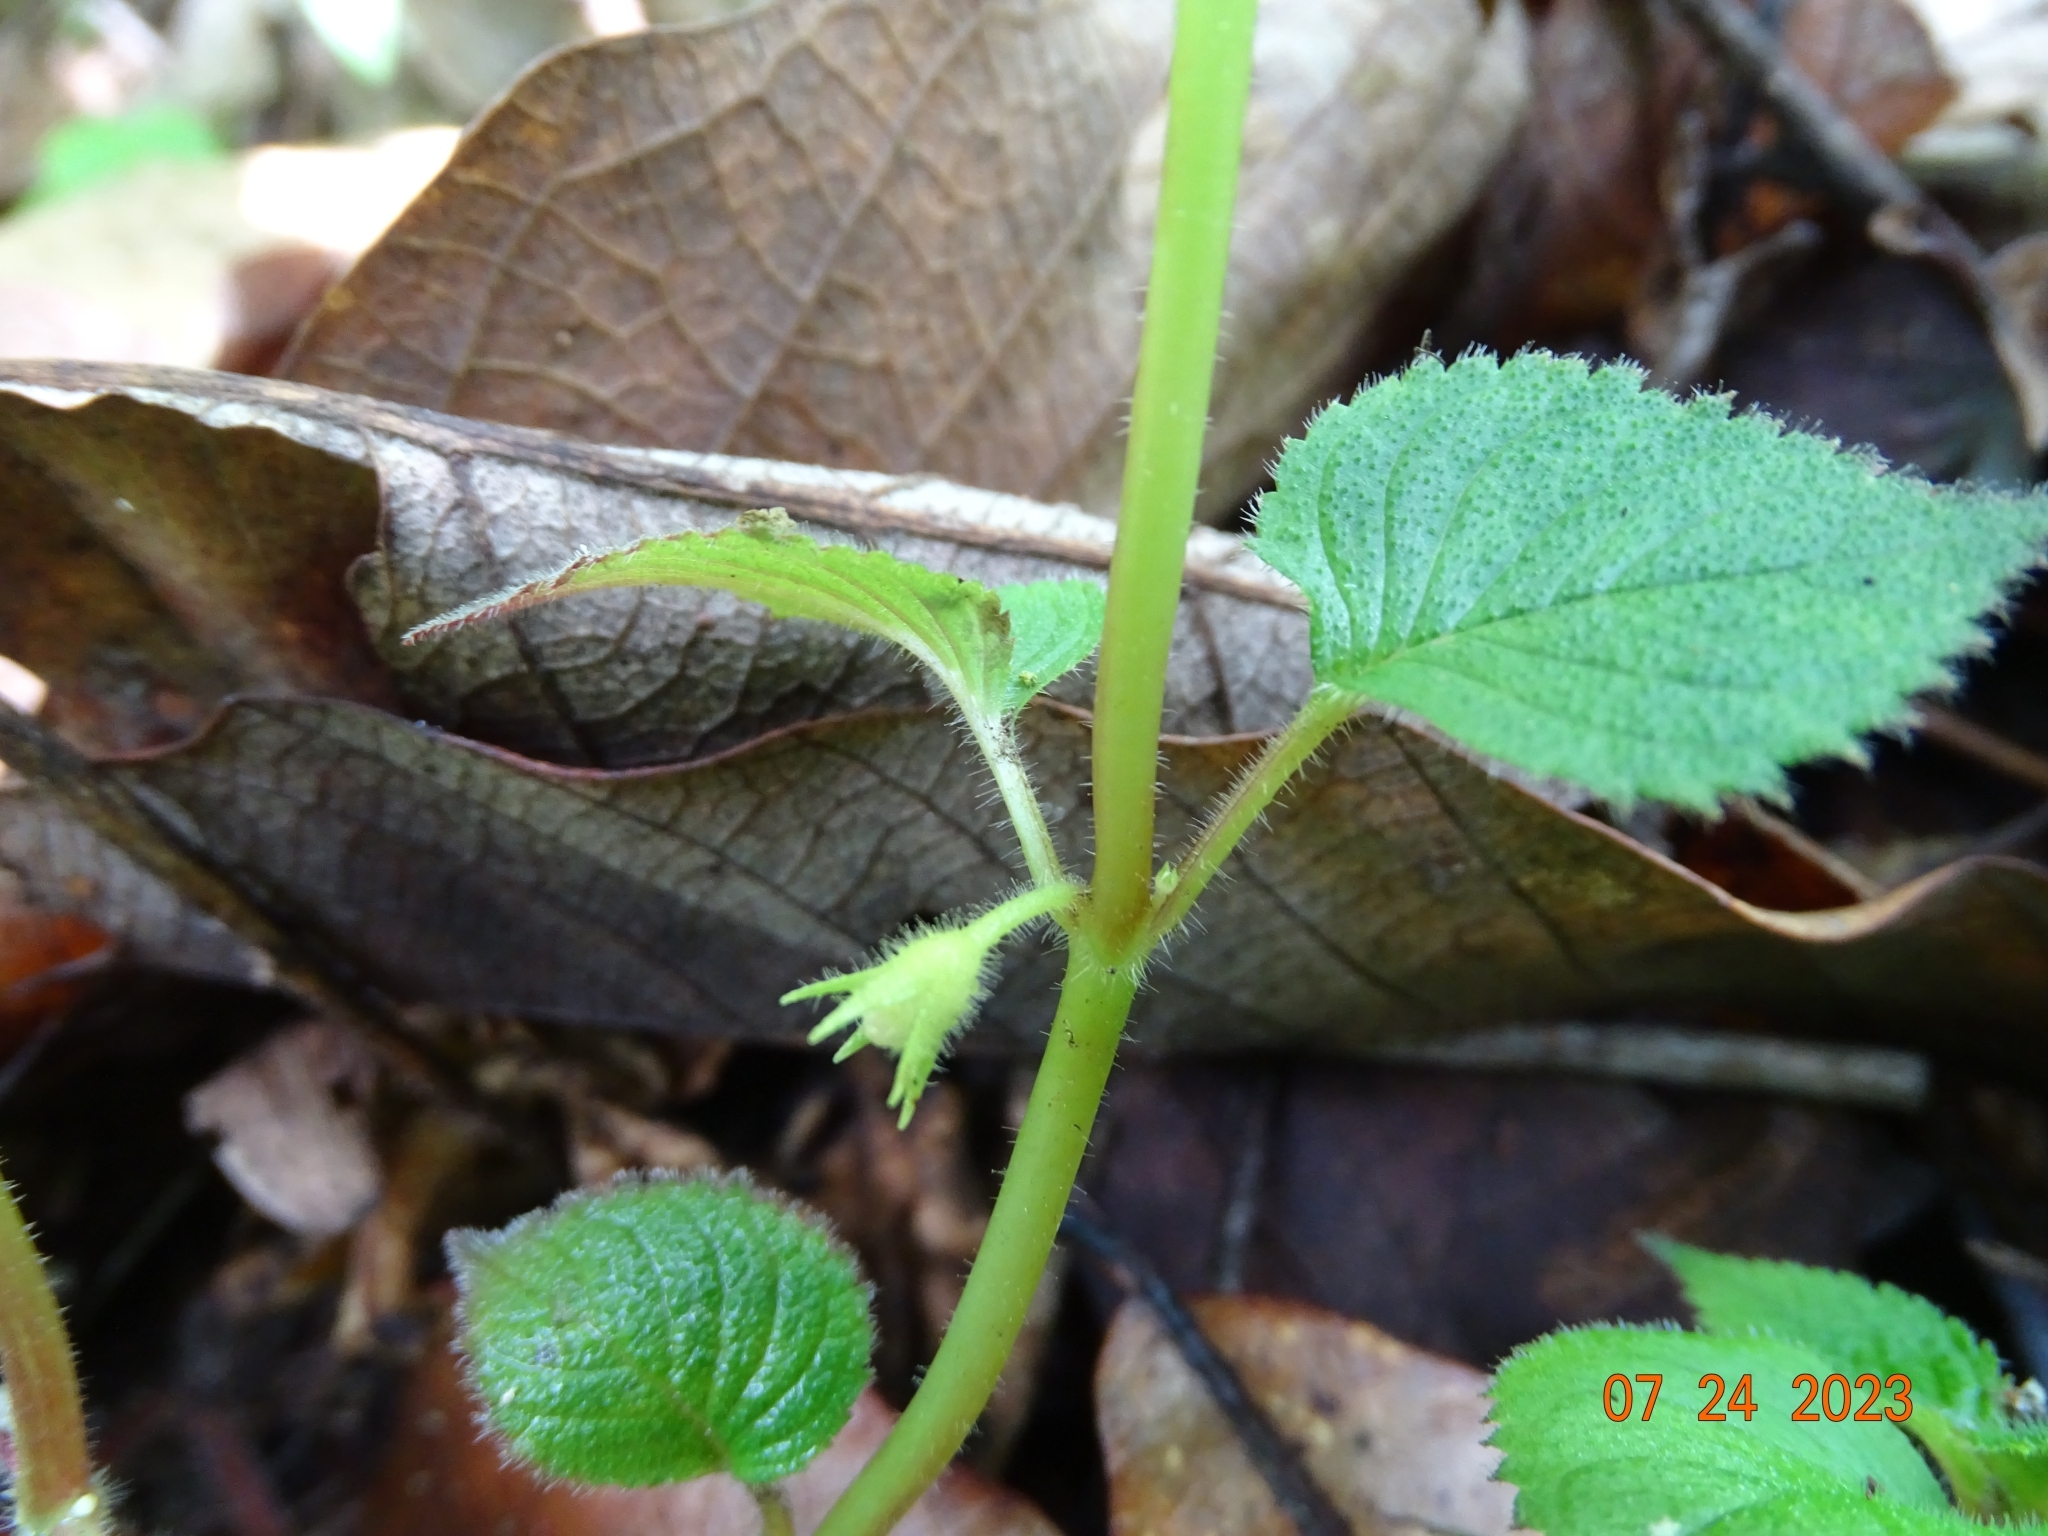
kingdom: Plantae
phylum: Tracheophyta
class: Magnoliopsida
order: Lamiales
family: Gesneriaceae
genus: Achimenes
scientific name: Achimenes hintoniana
